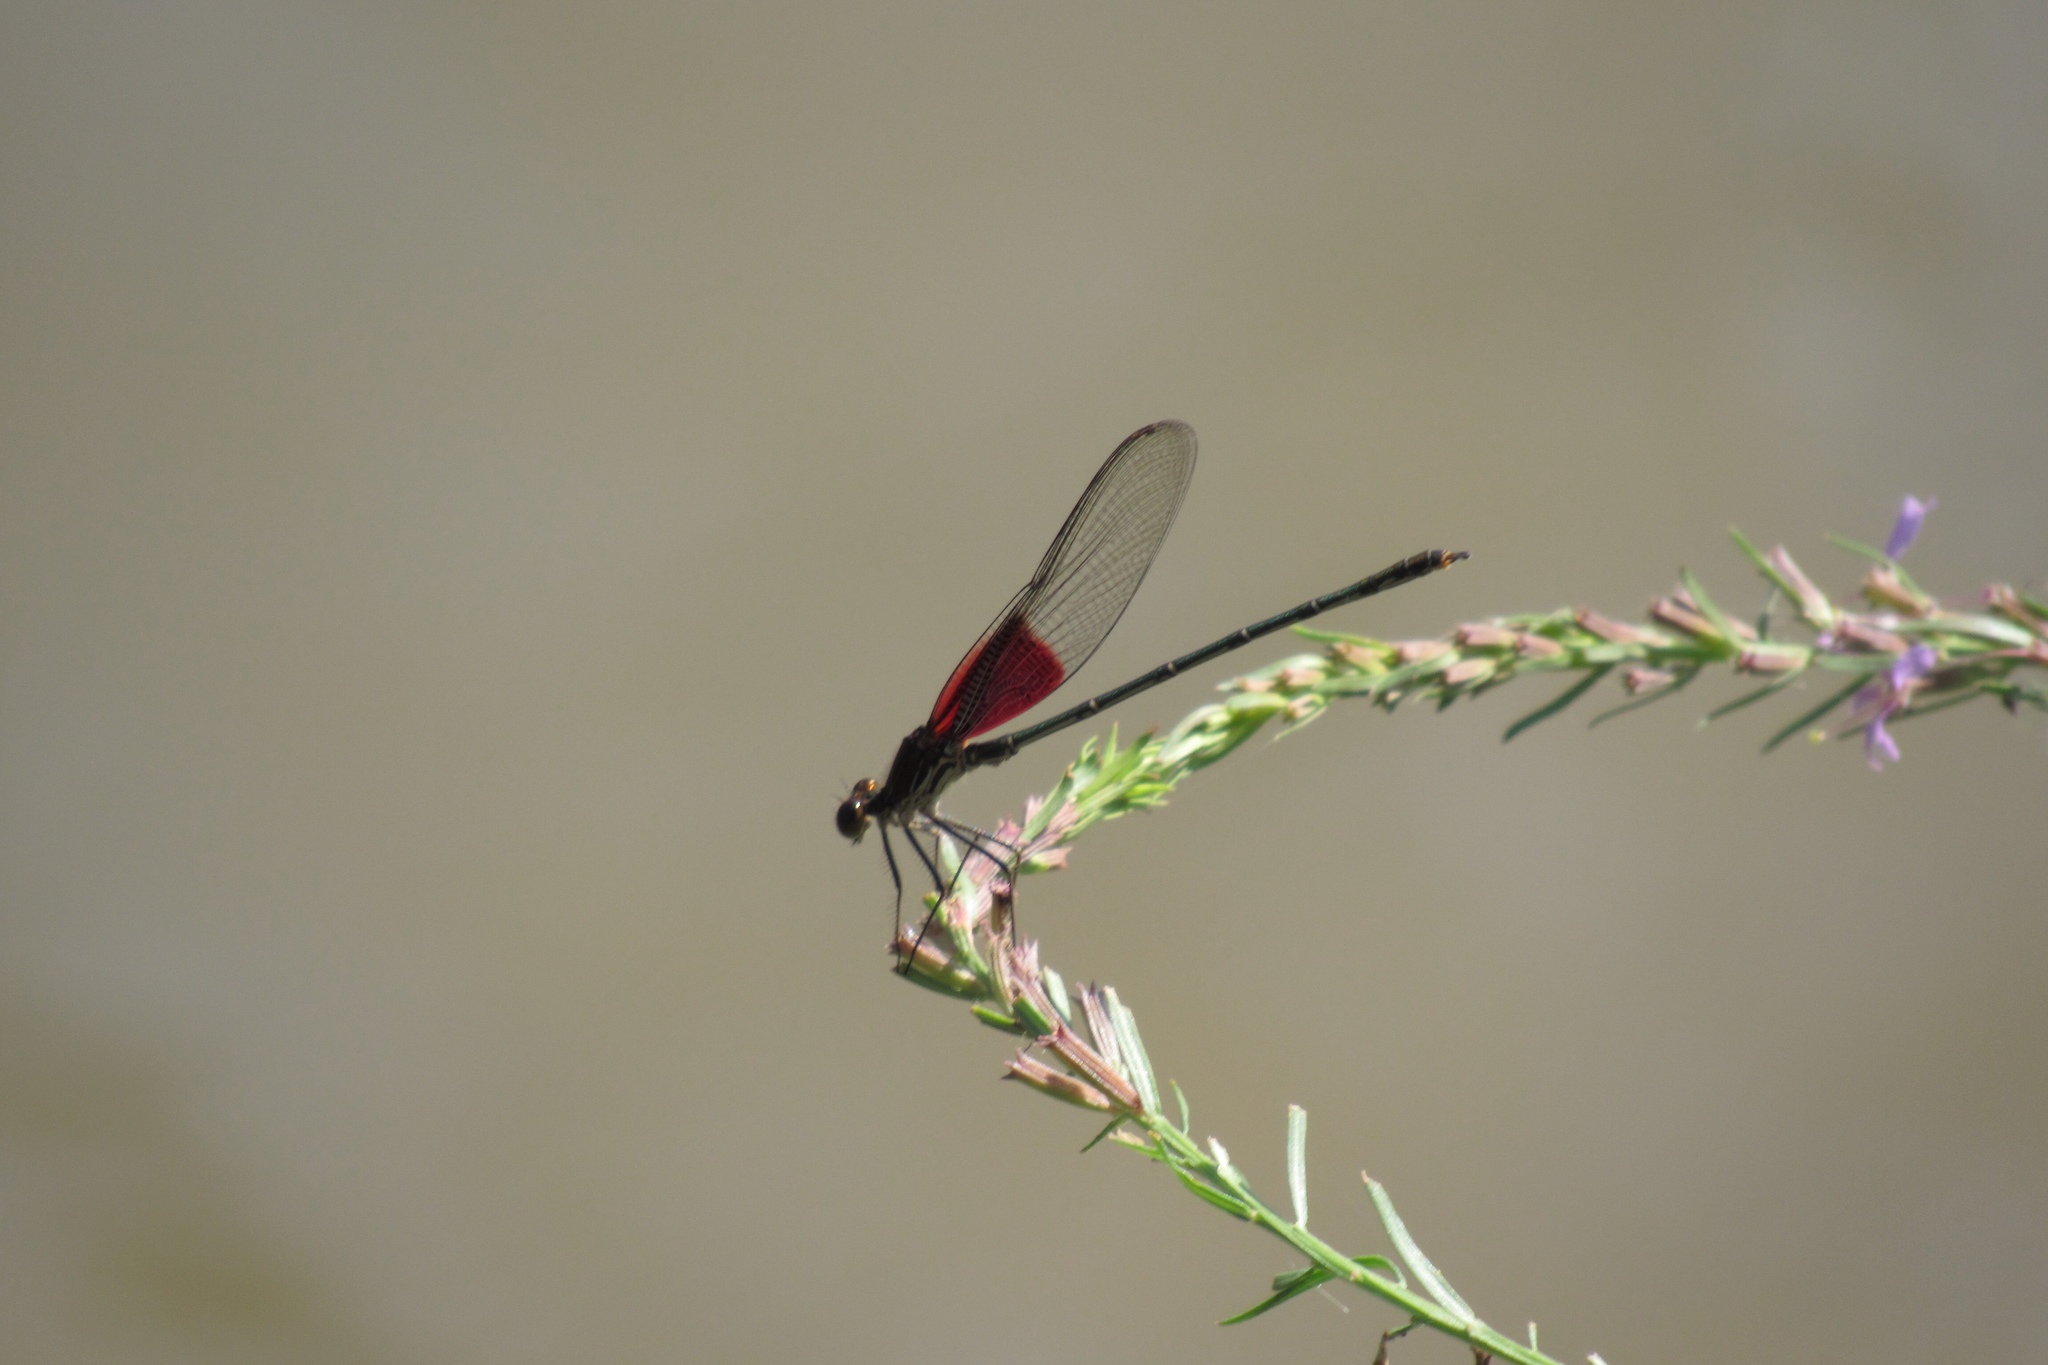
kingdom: Animalia
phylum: Arthropoda
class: Insecta
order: Odonata
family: Calopterygidae
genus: Hetaerina
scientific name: Hetaerina americana
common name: American rubyspot
